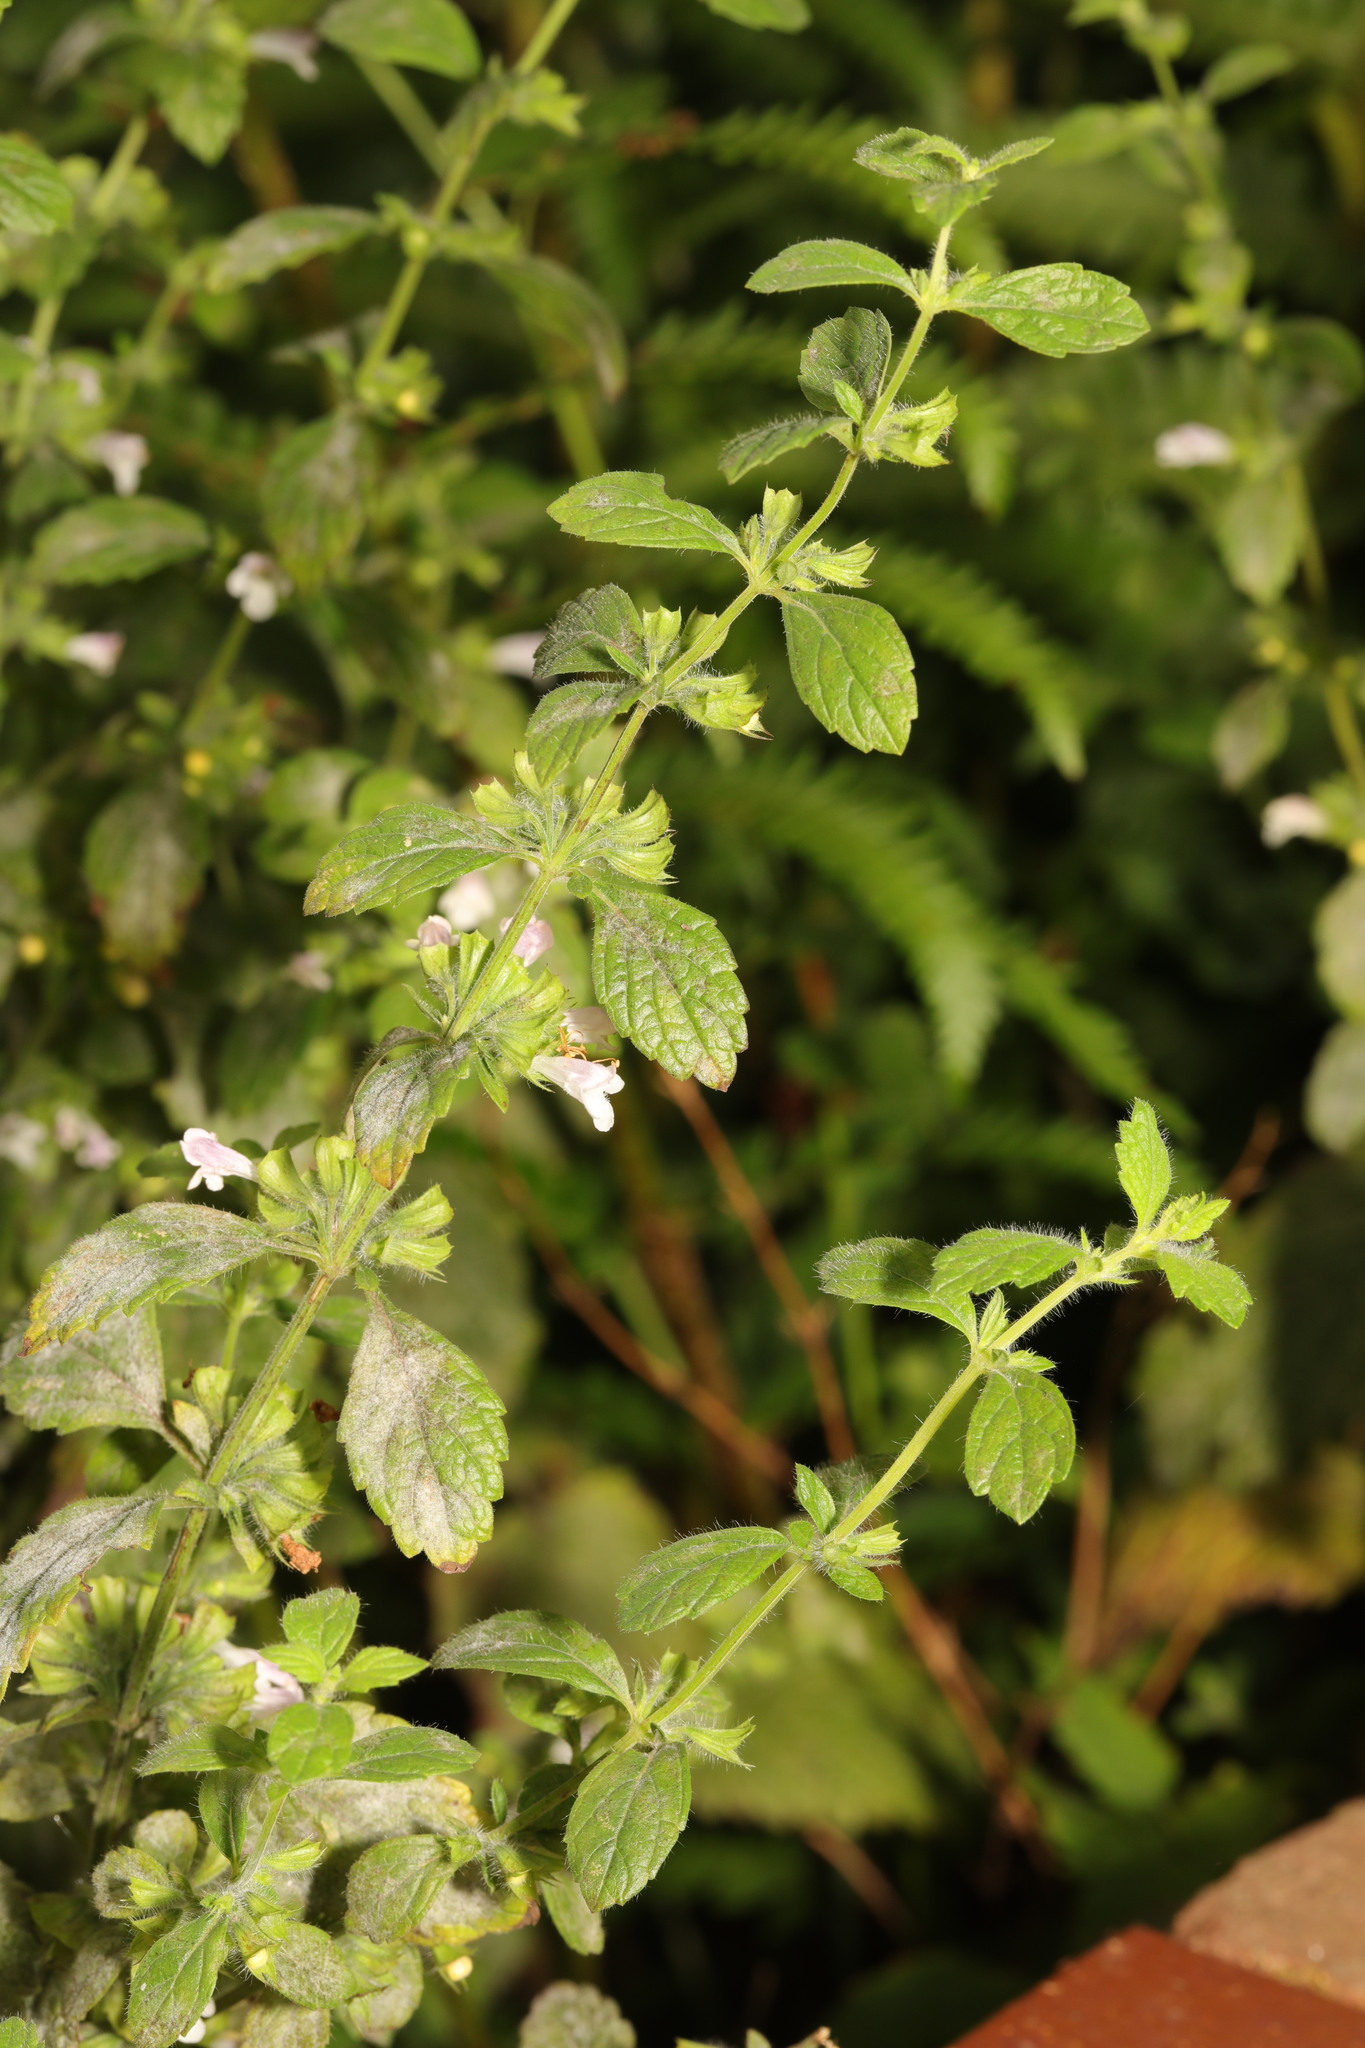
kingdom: Plantae
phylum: Tracheophyta
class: Magnoliopsida
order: Lamiales
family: Lamiaceae
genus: Melissa
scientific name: Melissa officinalis
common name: Balm
